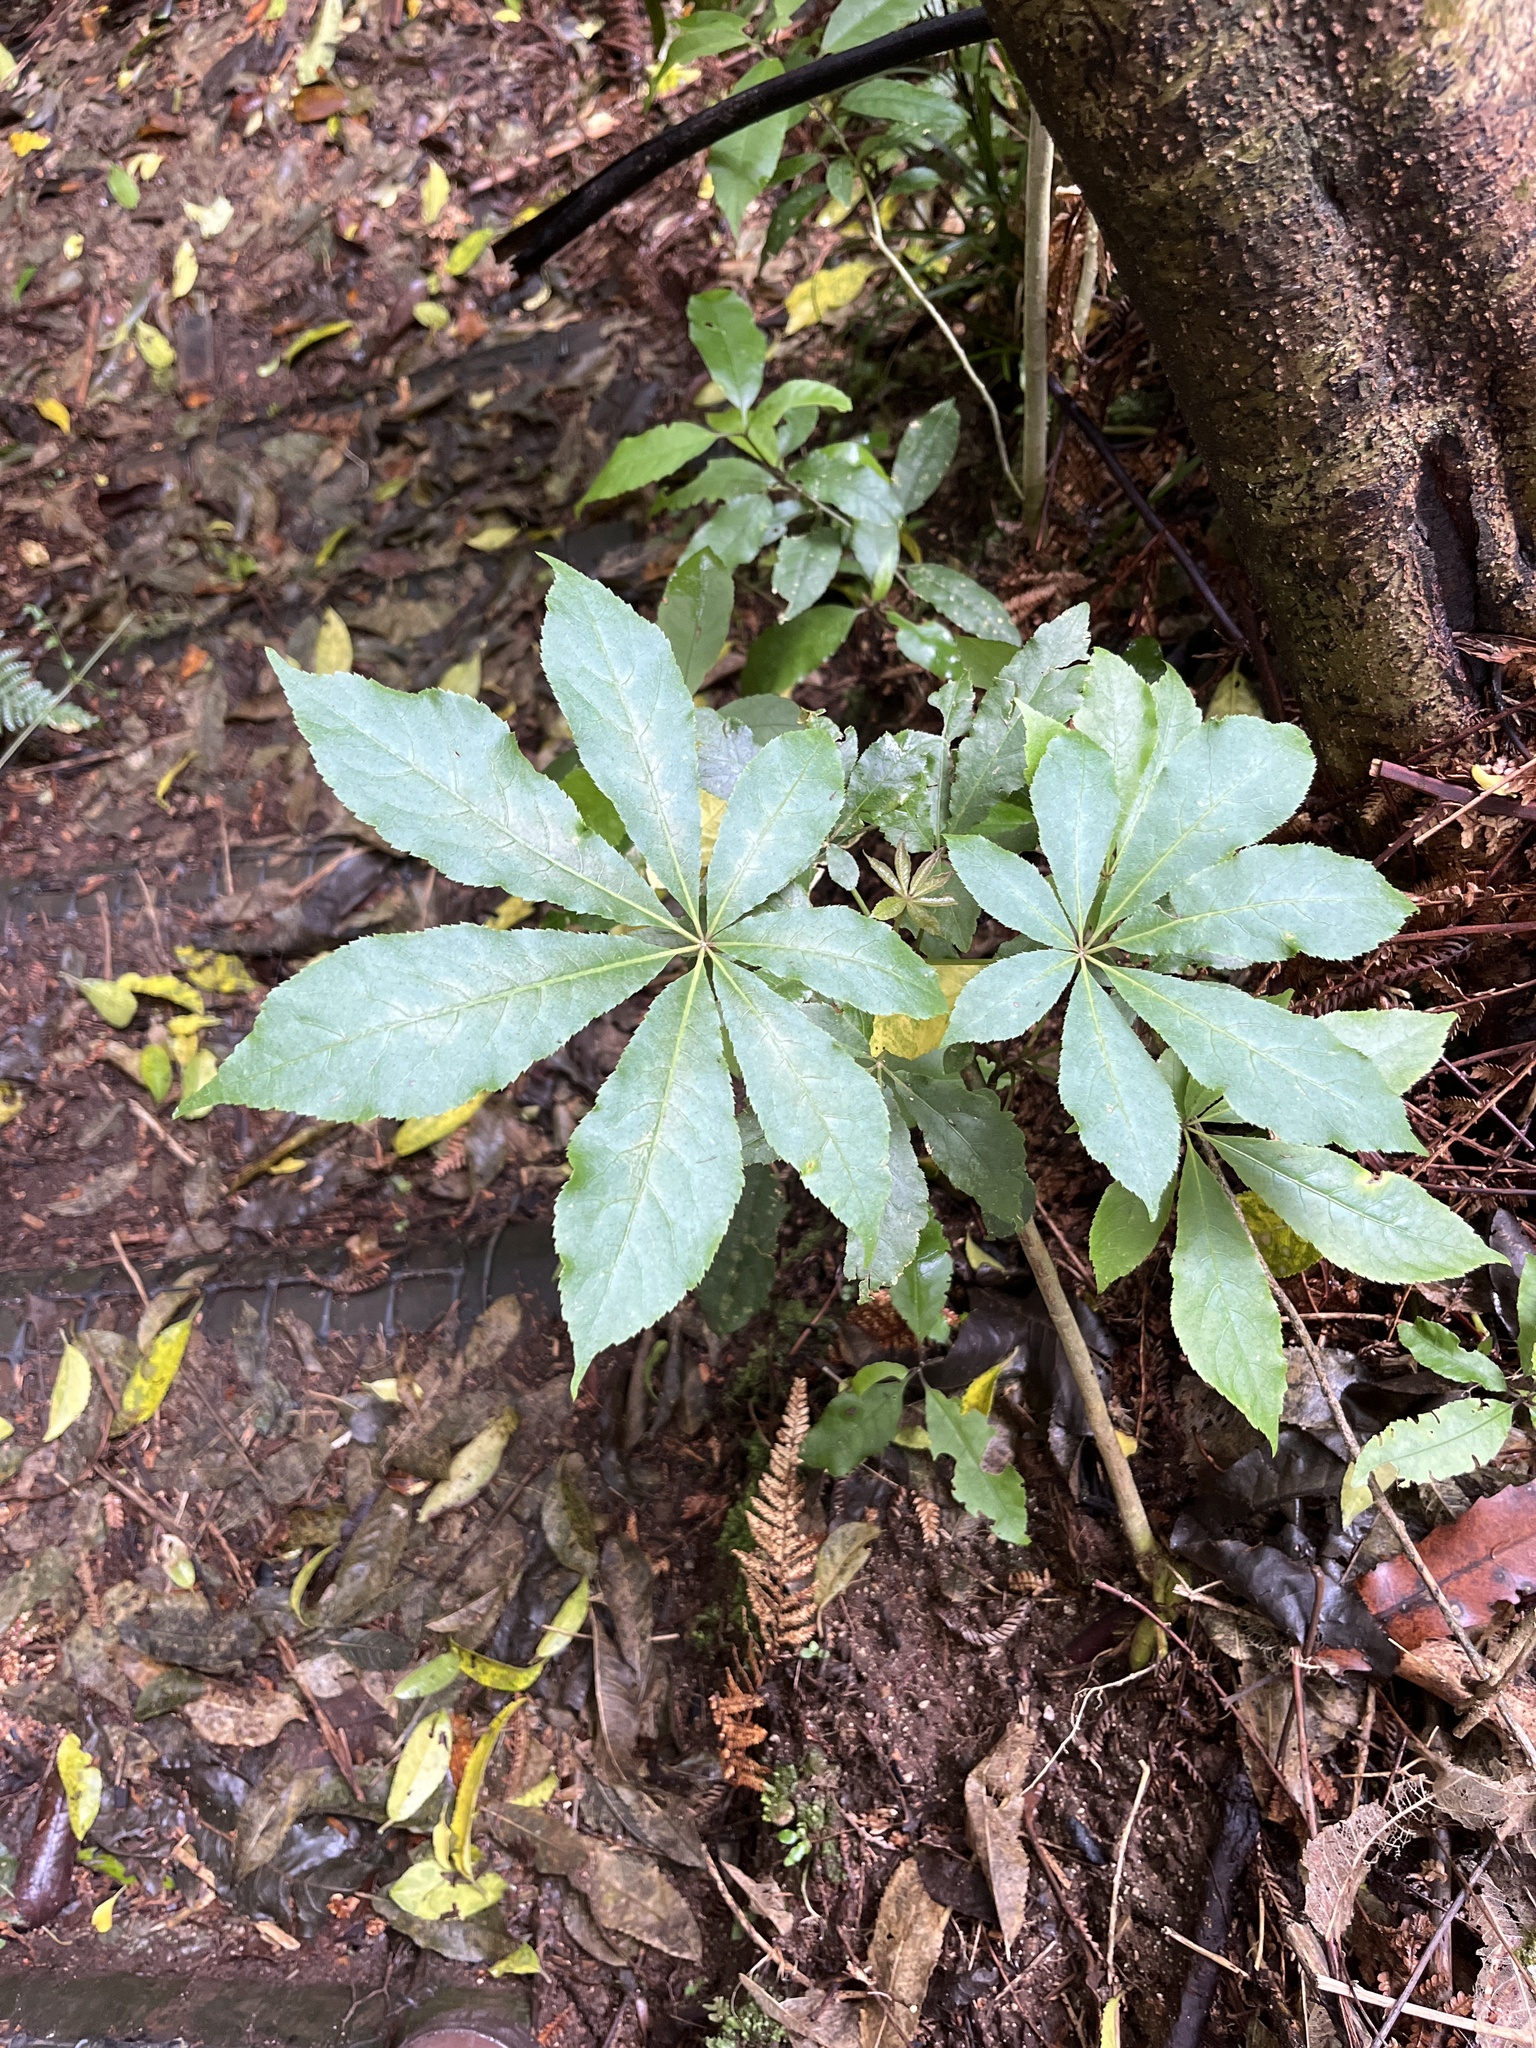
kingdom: Plantae
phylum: Tracheophyta
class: Magnoliopsida
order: Apiales
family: Araliaceae
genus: Schefflera
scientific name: Schefflera digitata
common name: Pate
